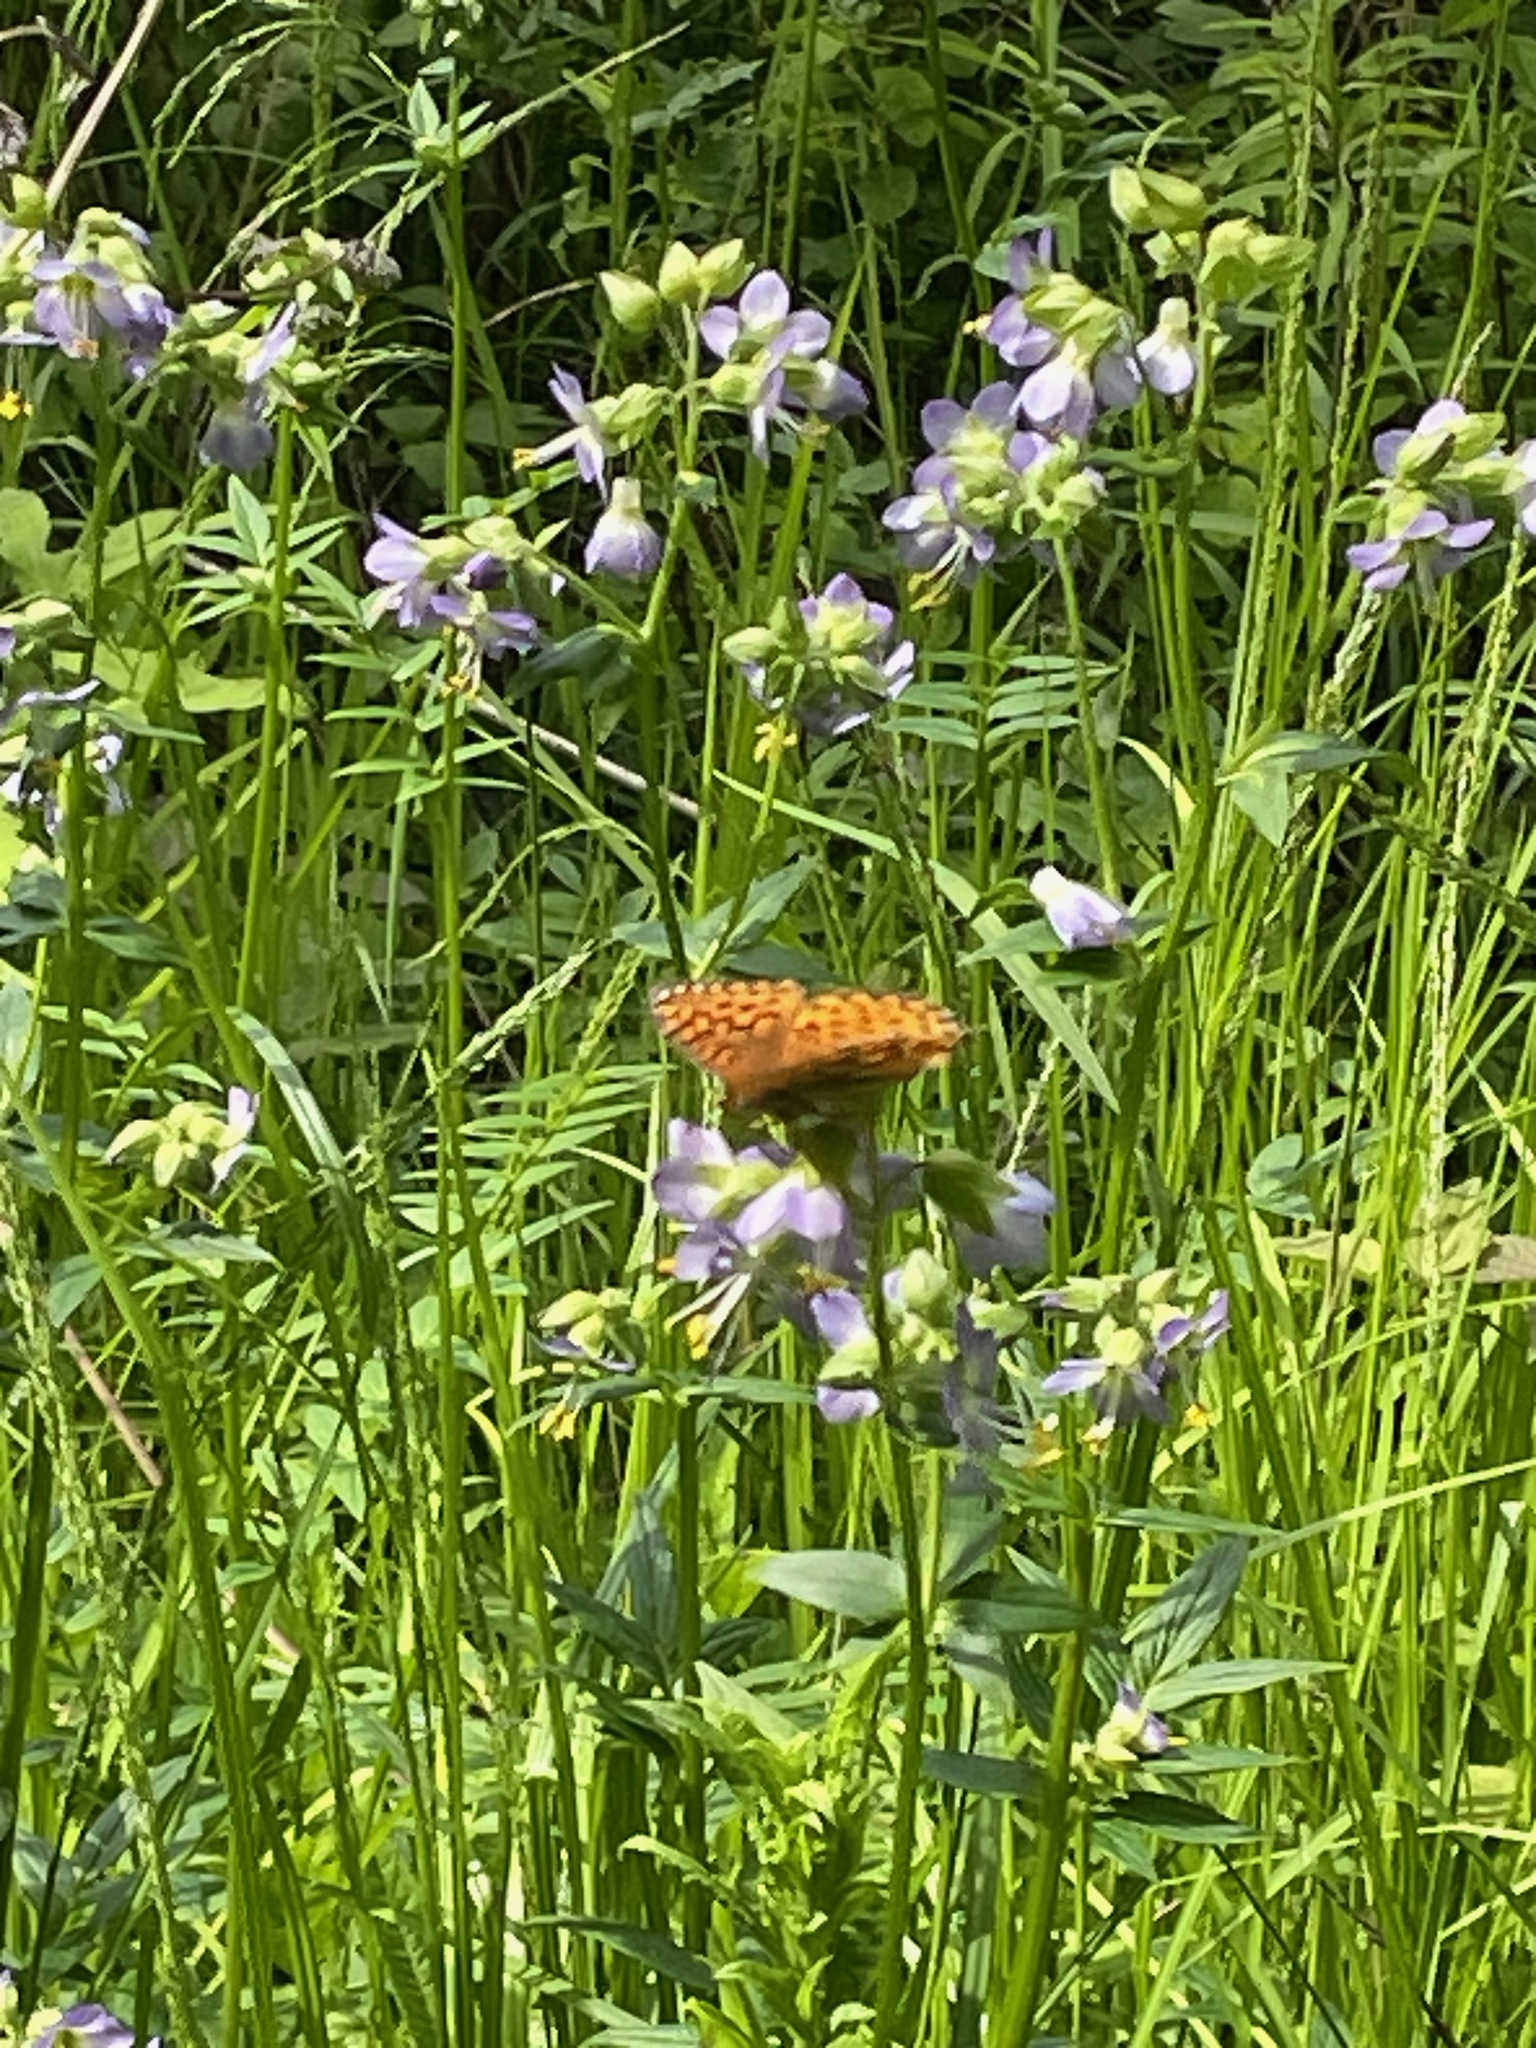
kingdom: Animalia
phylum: Arthropoda
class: Insecta
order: Lepidoptera
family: Nymphalidae
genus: Speyeria
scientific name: Speyeria atlantis
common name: Atlantis fritillary
